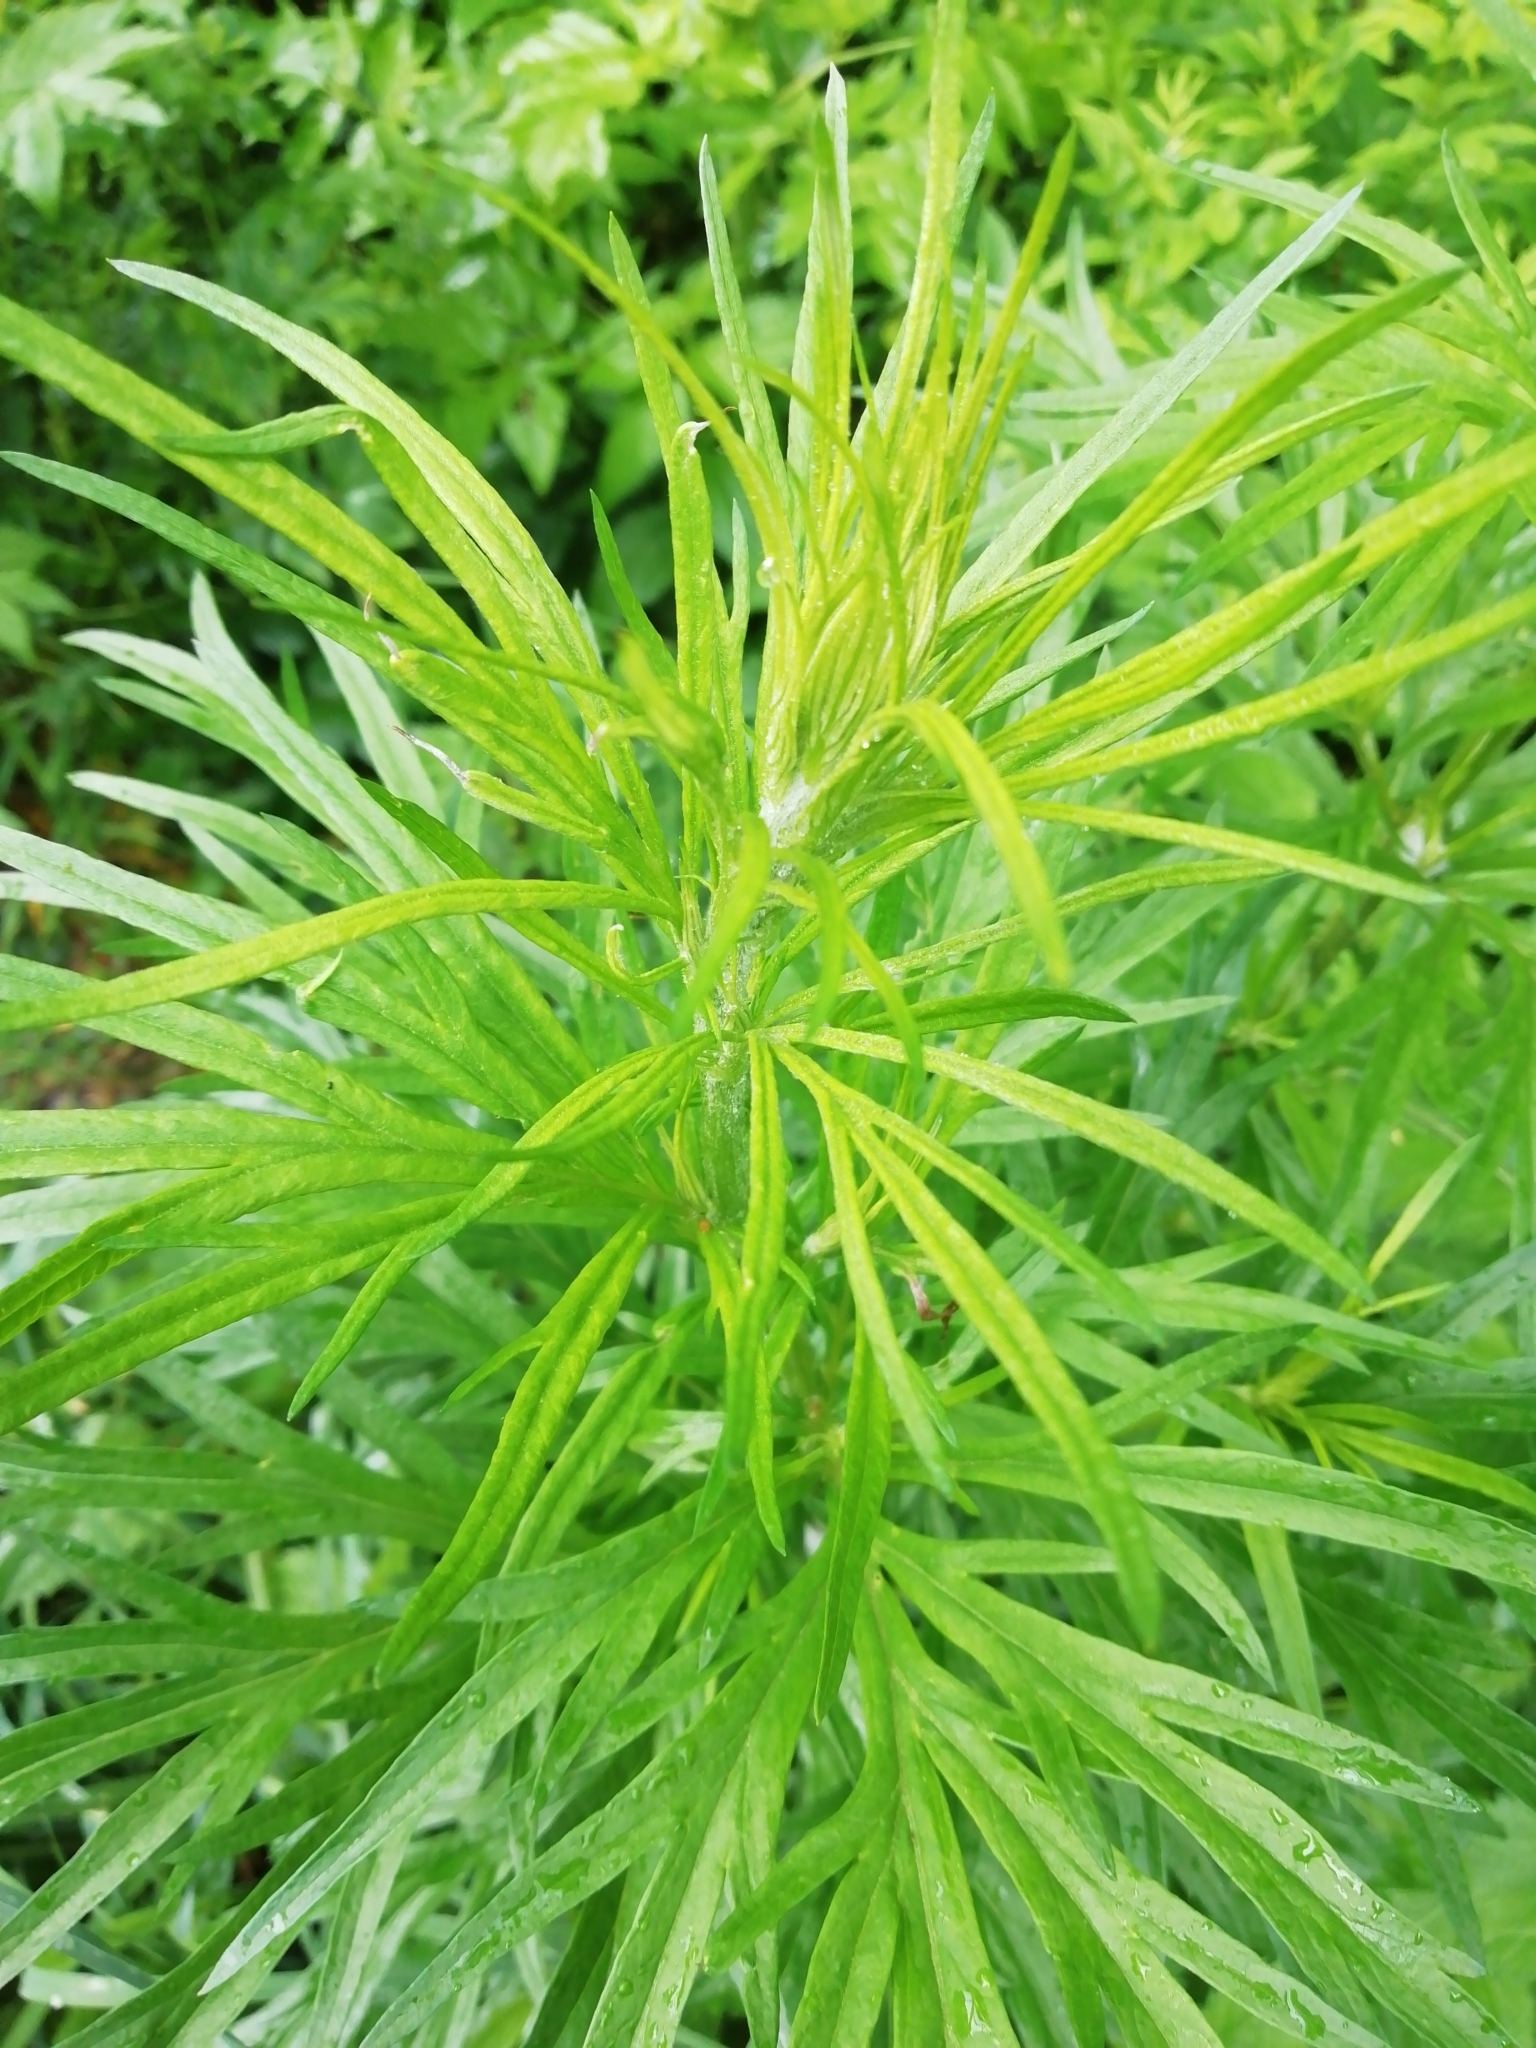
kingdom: Plantae
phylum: Tracheophyta
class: Magnoliopsida
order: Asterales
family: Asteraceae
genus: Artemisia
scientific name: Artemisia vulgaris
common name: Mugwort
